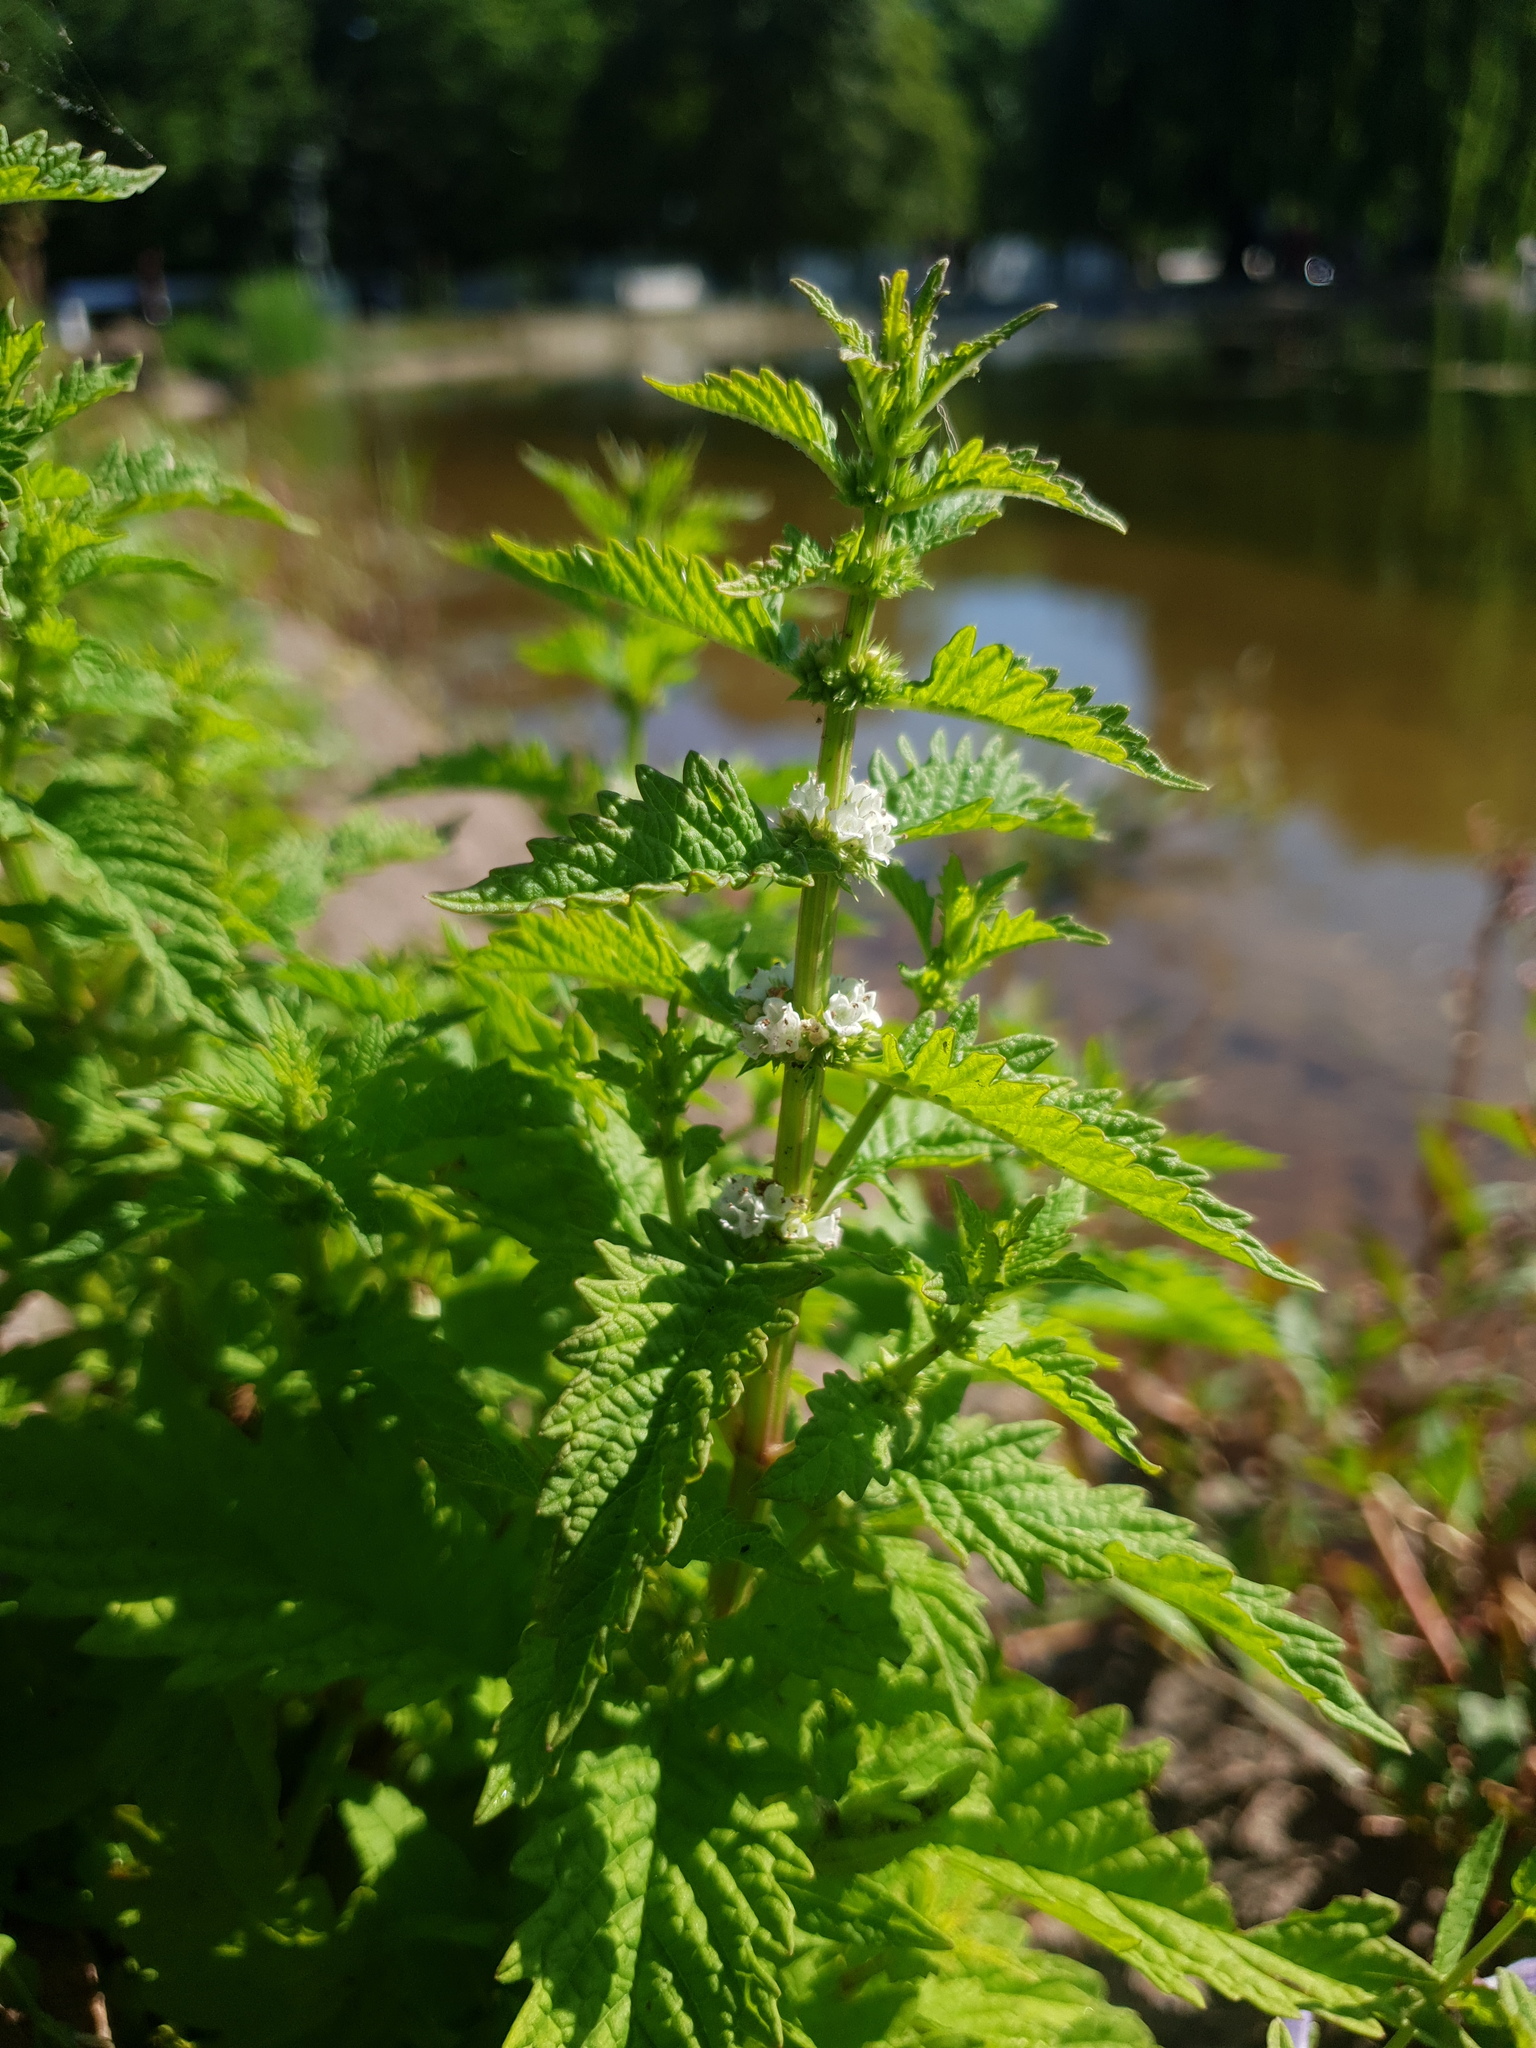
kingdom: Plantae
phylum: Tracheophyta
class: Magnoliopsida
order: Lamiales
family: Lamiaceae
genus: Lycopus
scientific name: Lycopus europaeus
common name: European bugleweed
